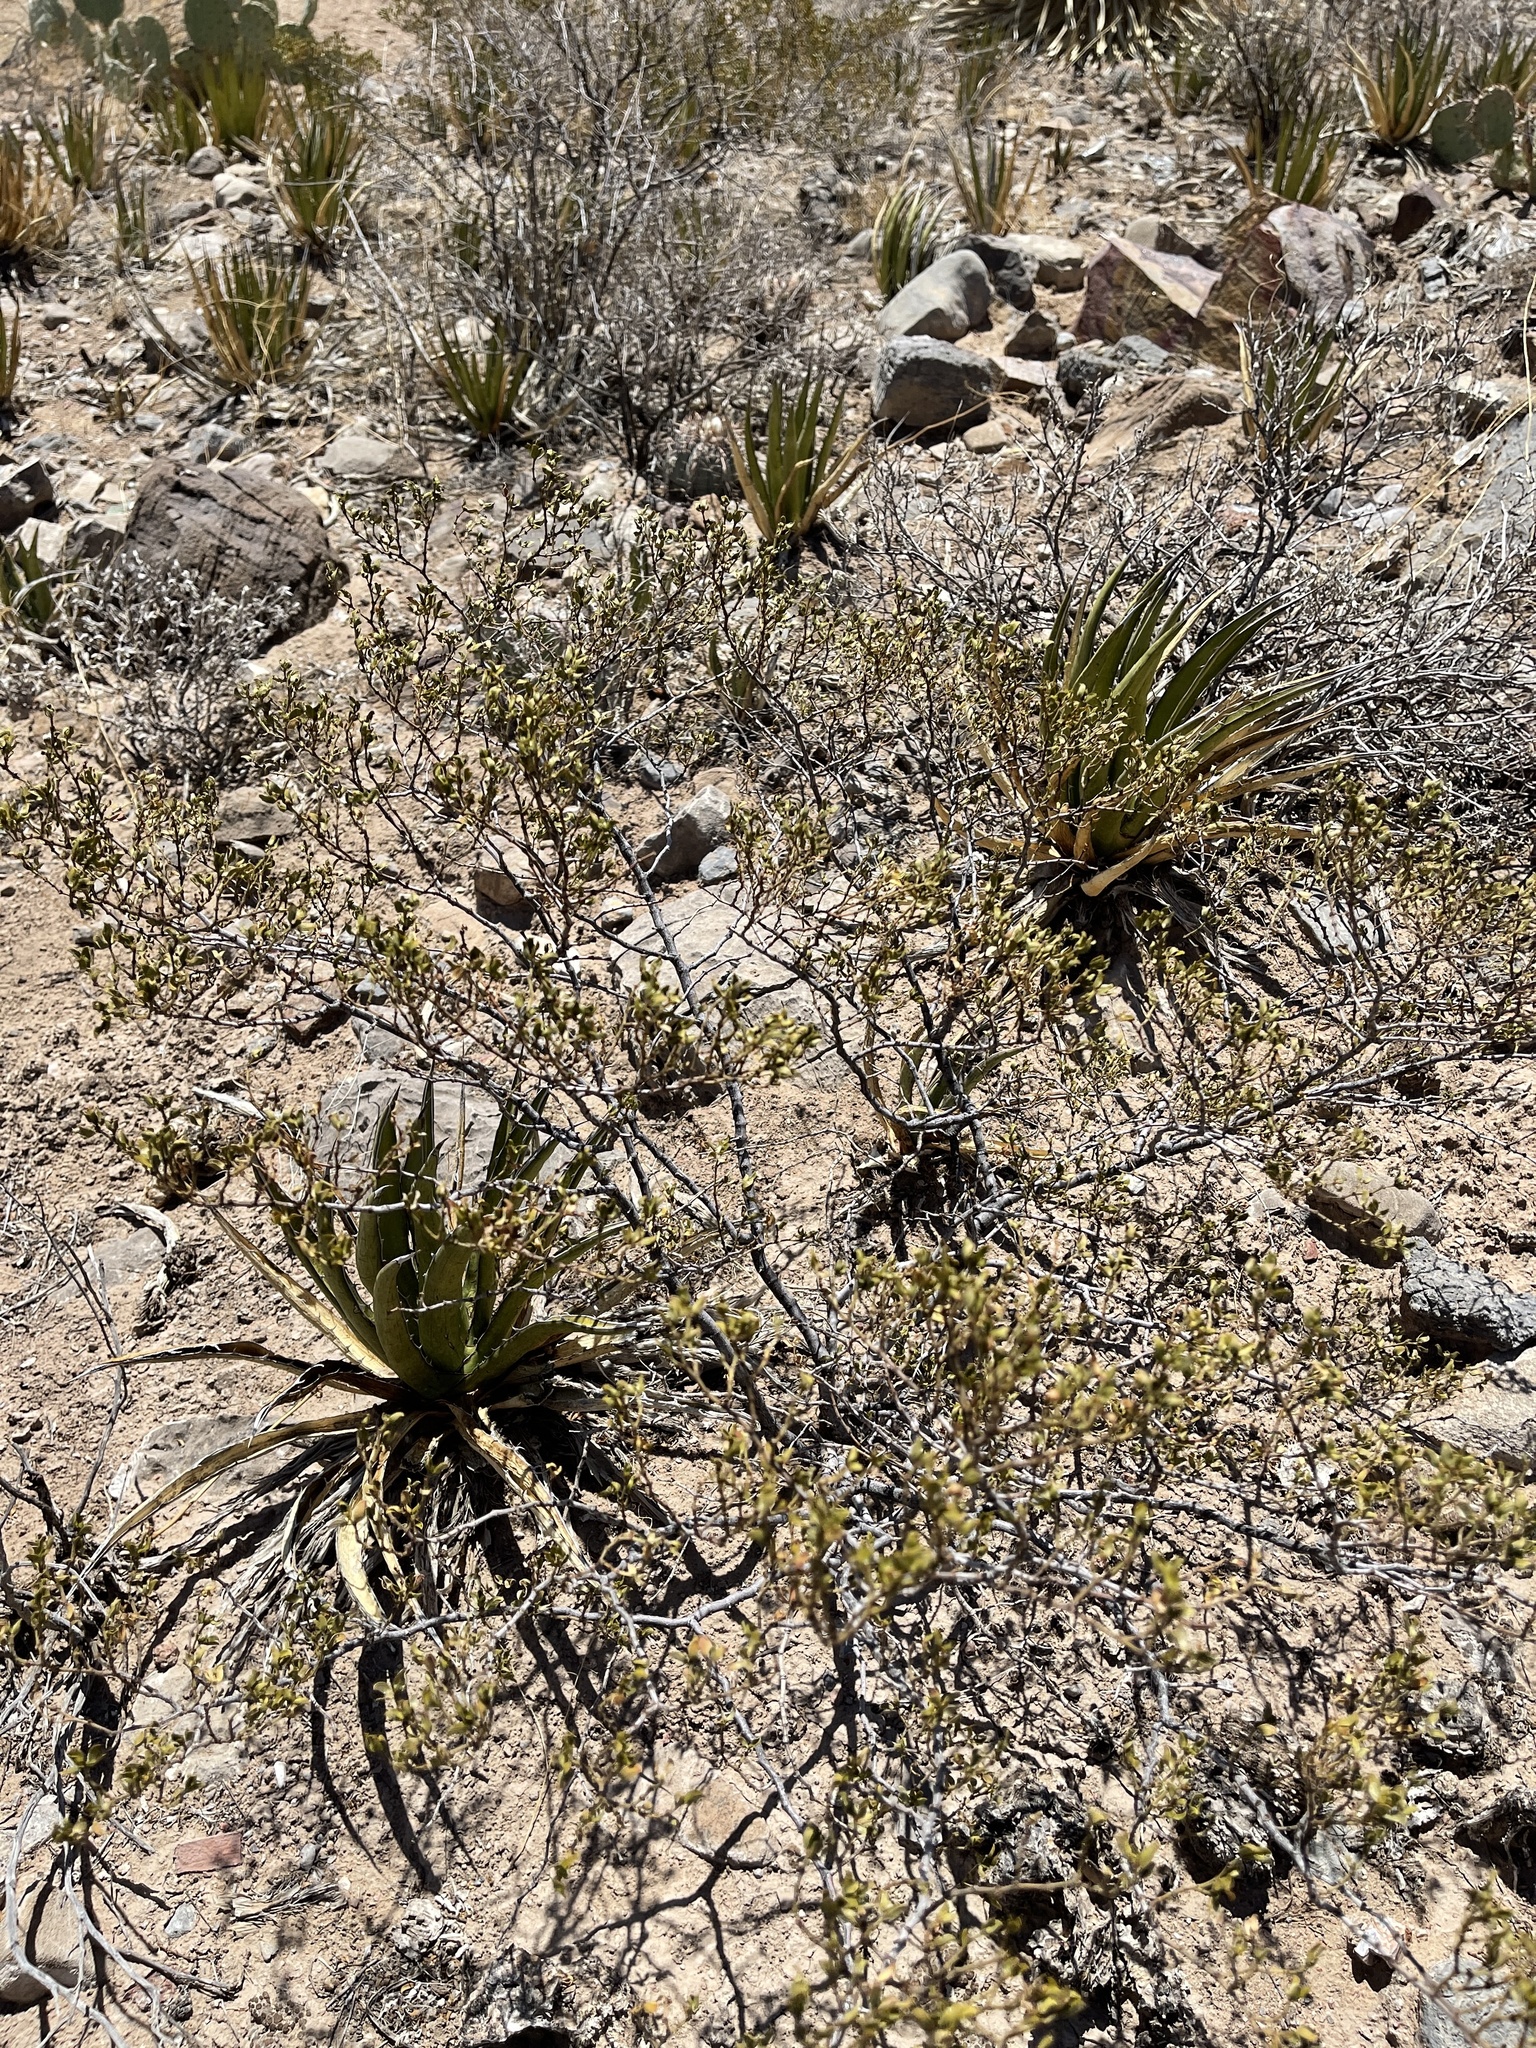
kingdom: Plantae
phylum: Tracheophyta
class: Magnoliopsida
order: Zygophyllales
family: Zygophyllaceae
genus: Larrea
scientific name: Larrea tridentata
